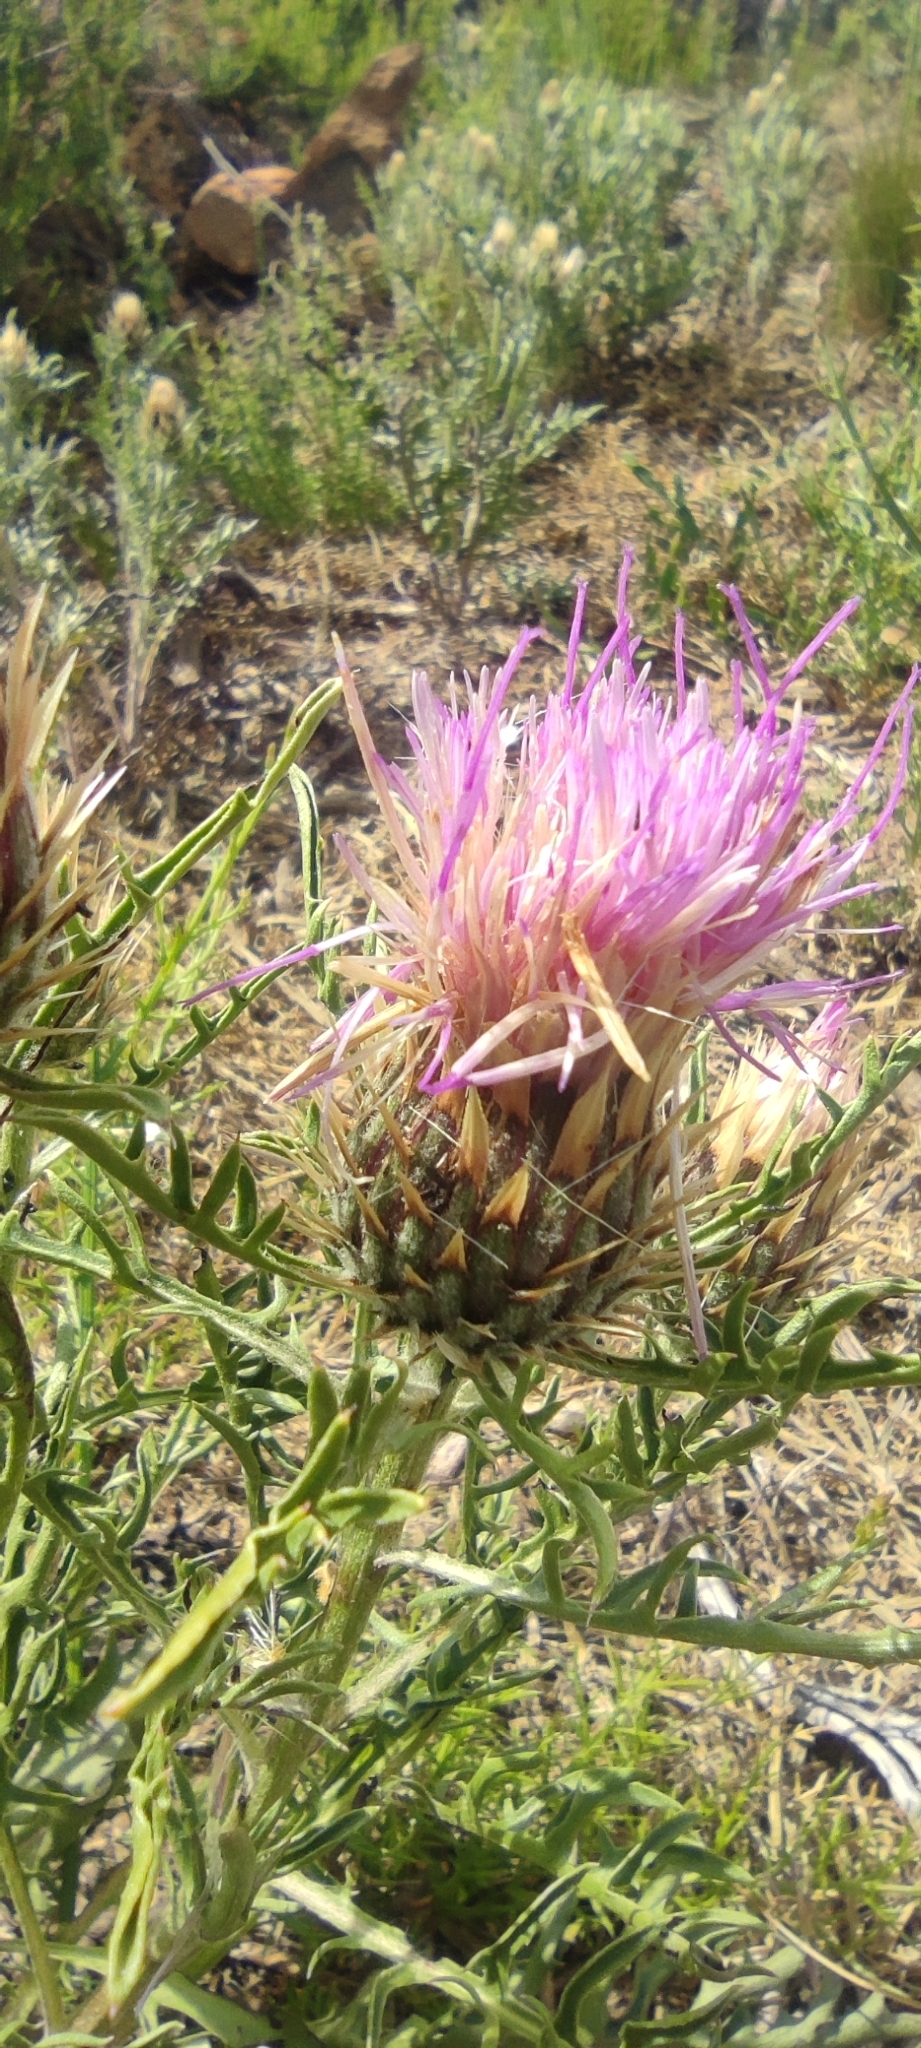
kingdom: Plantae
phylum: Tracheophyta
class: Magnoliopsida
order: Asterales
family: Asteraceae
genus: Klasea
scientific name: Klasea boetica
